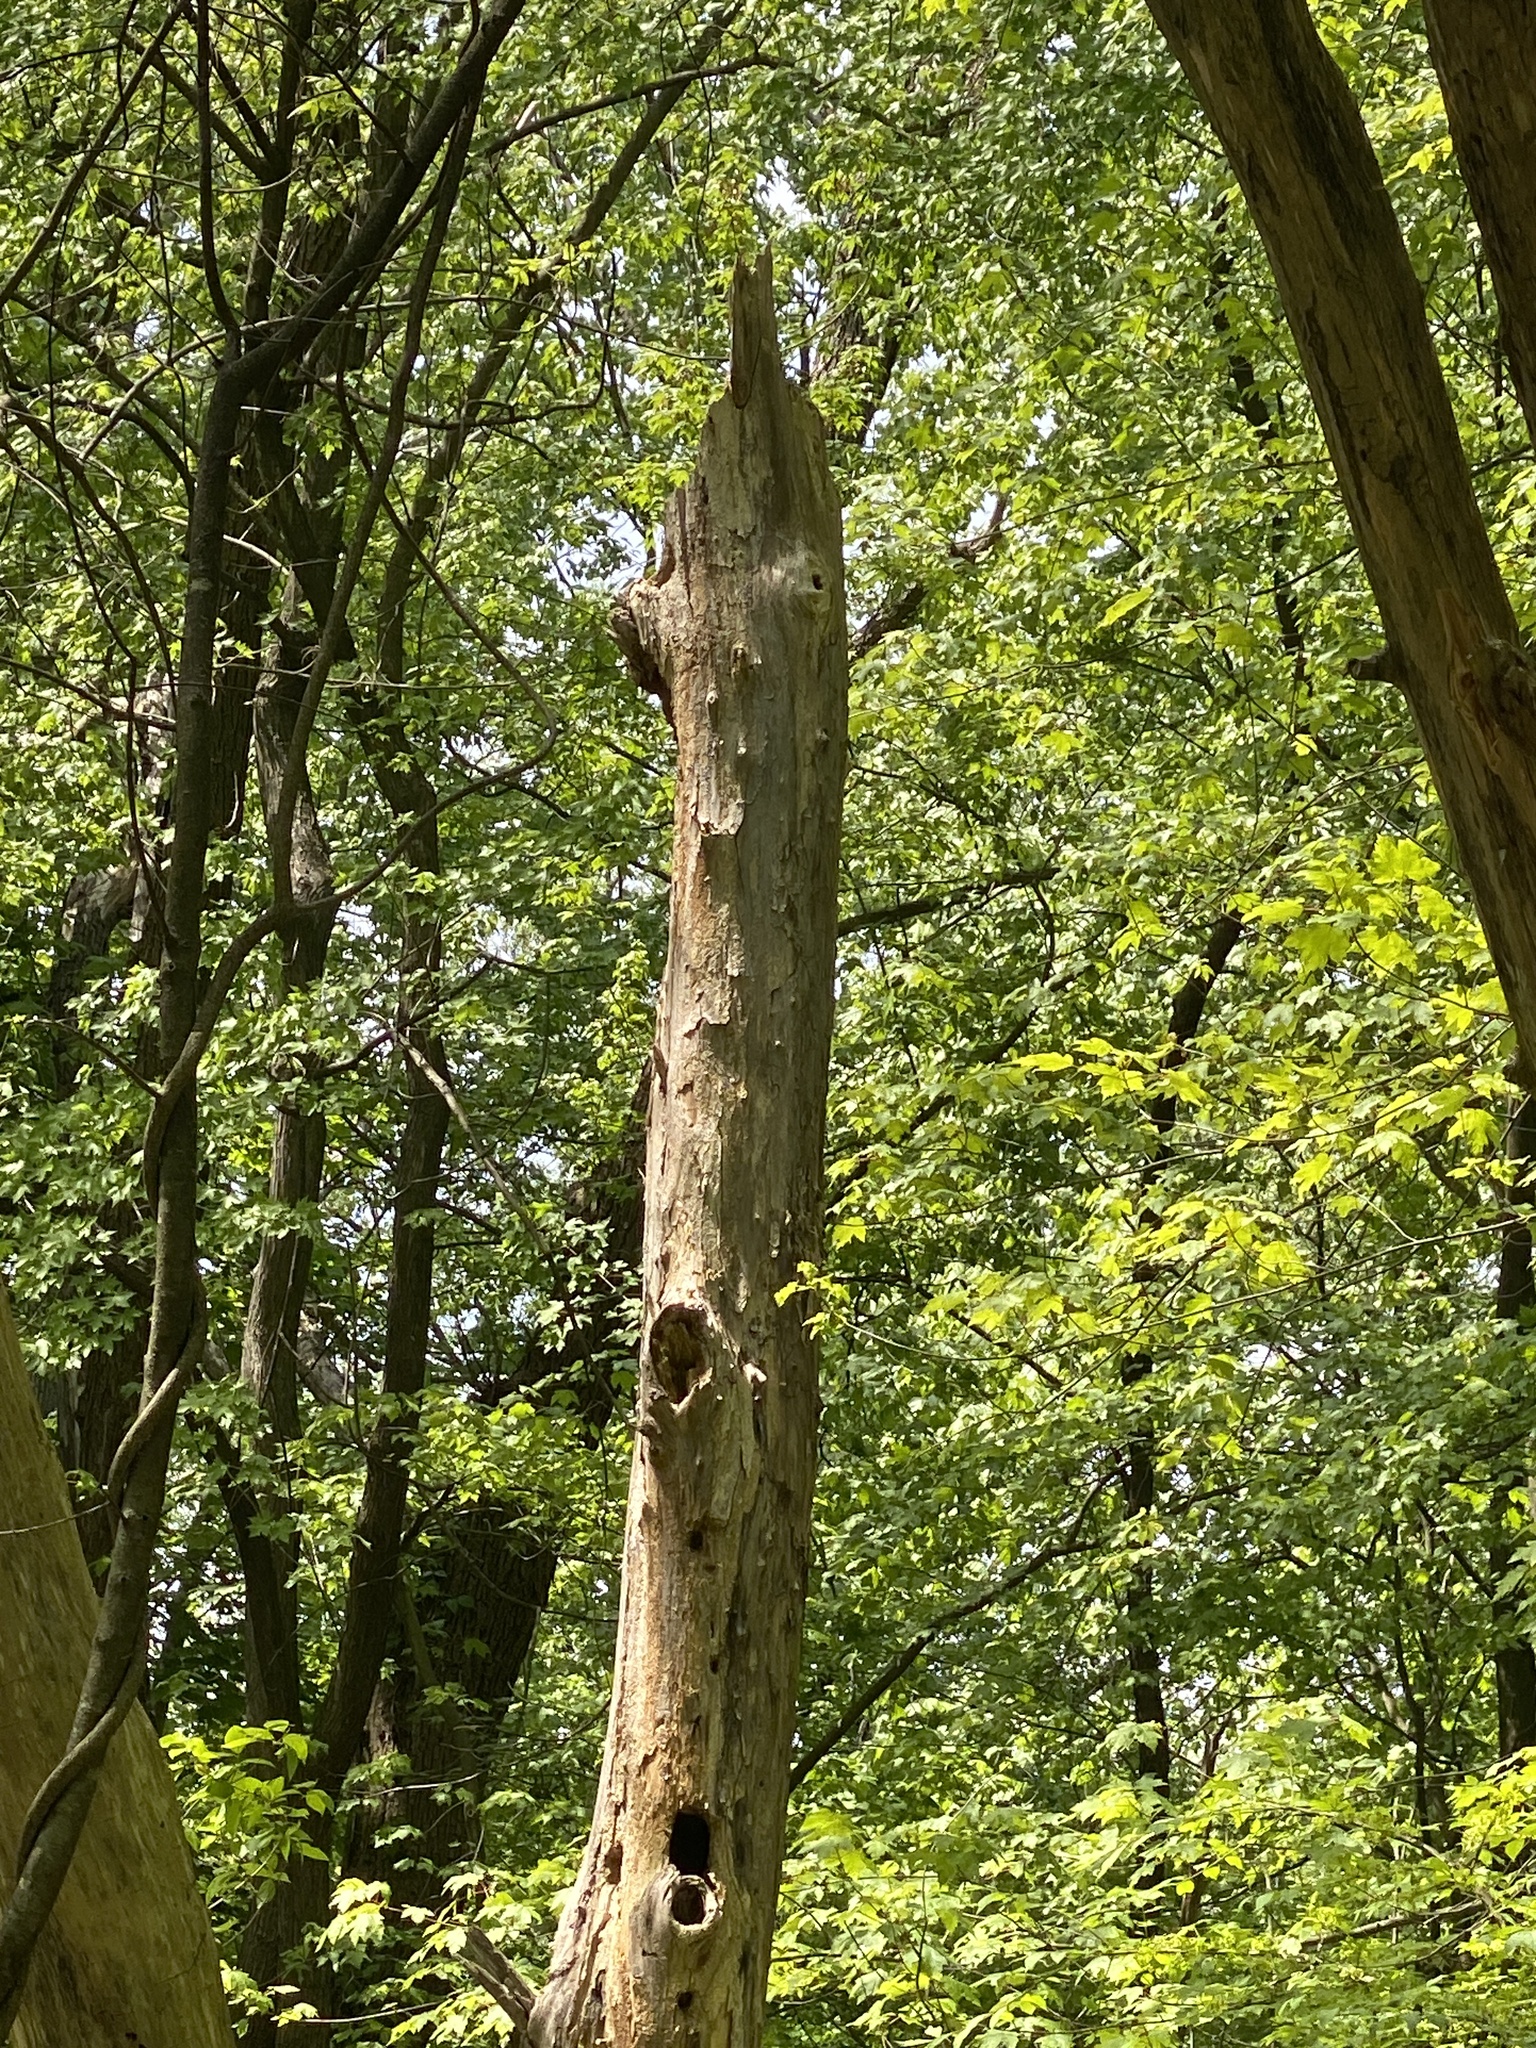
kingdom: Animalia
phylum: Chordata
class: Aves
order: Piciformes
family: Picidae
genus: Dryocopus
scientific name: Dryocopus pileatus
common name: Pileated woodpecker
